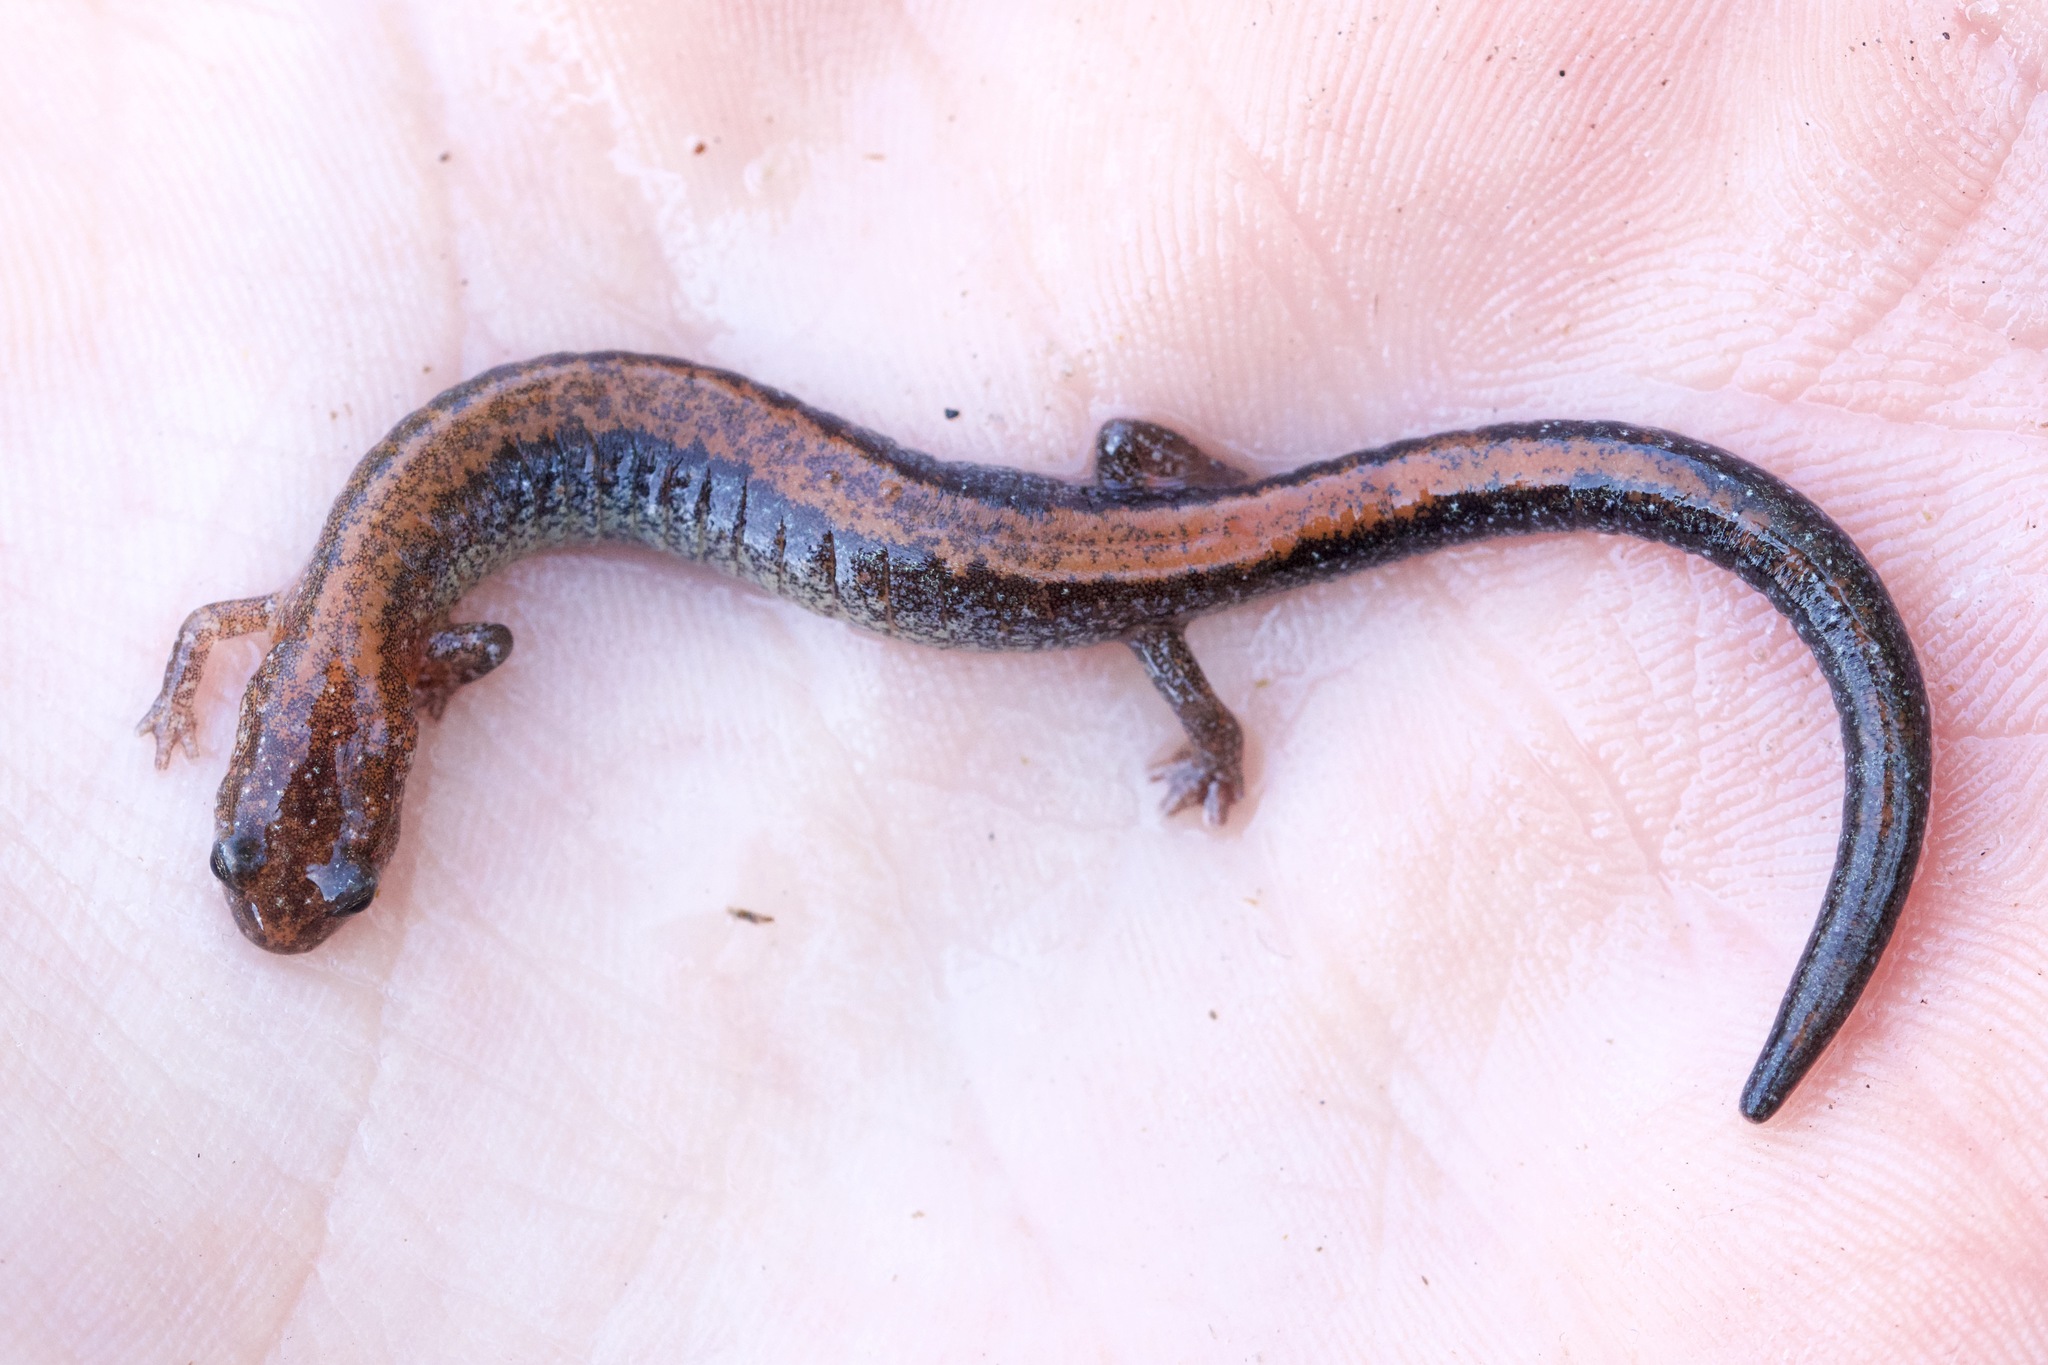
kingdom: Animalia
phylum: Chordata
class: Amphibia
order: Caudata
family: Plethodontidae
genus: Plethodon
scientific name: Plethodon cinereus
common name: Redback salamander
